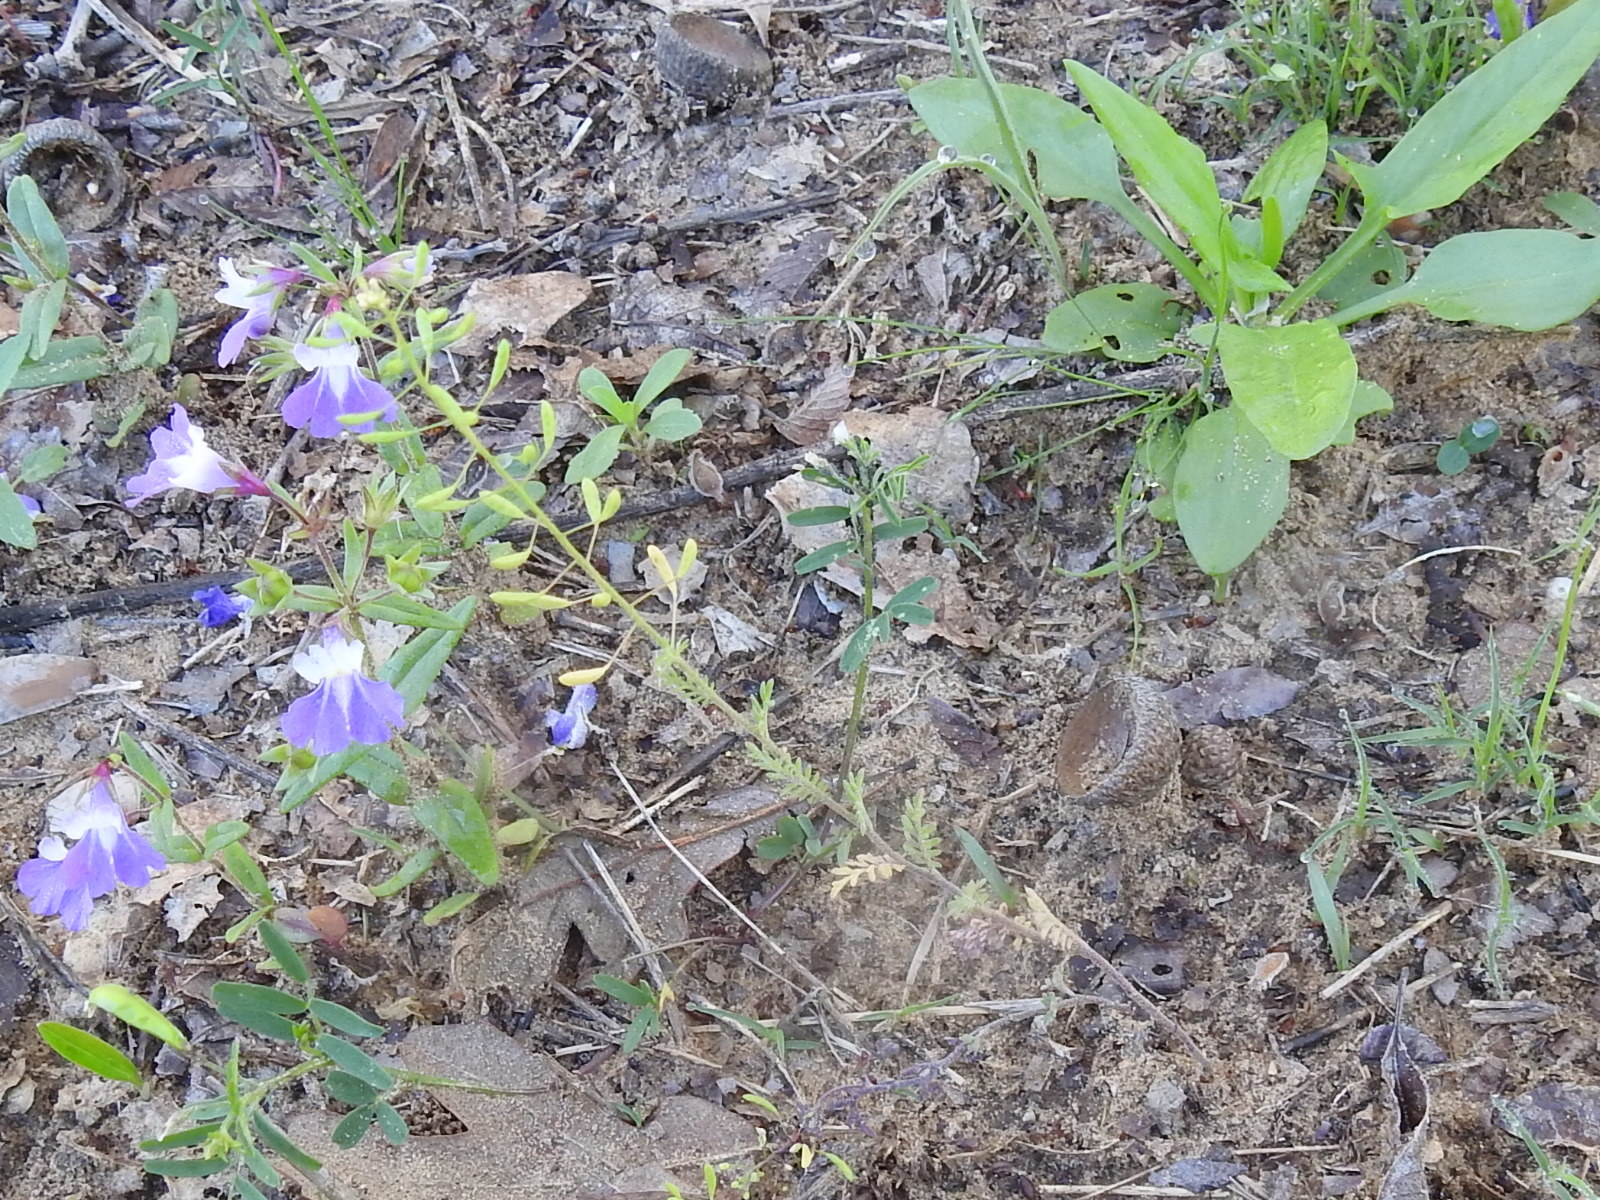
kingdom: Plantae
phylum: Tracheophyta
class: Magnoliopsida
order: Brassicales
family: Brassicaceae
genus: Descurainia
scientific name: Descurainia pinnata
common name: Western tansy mustard
